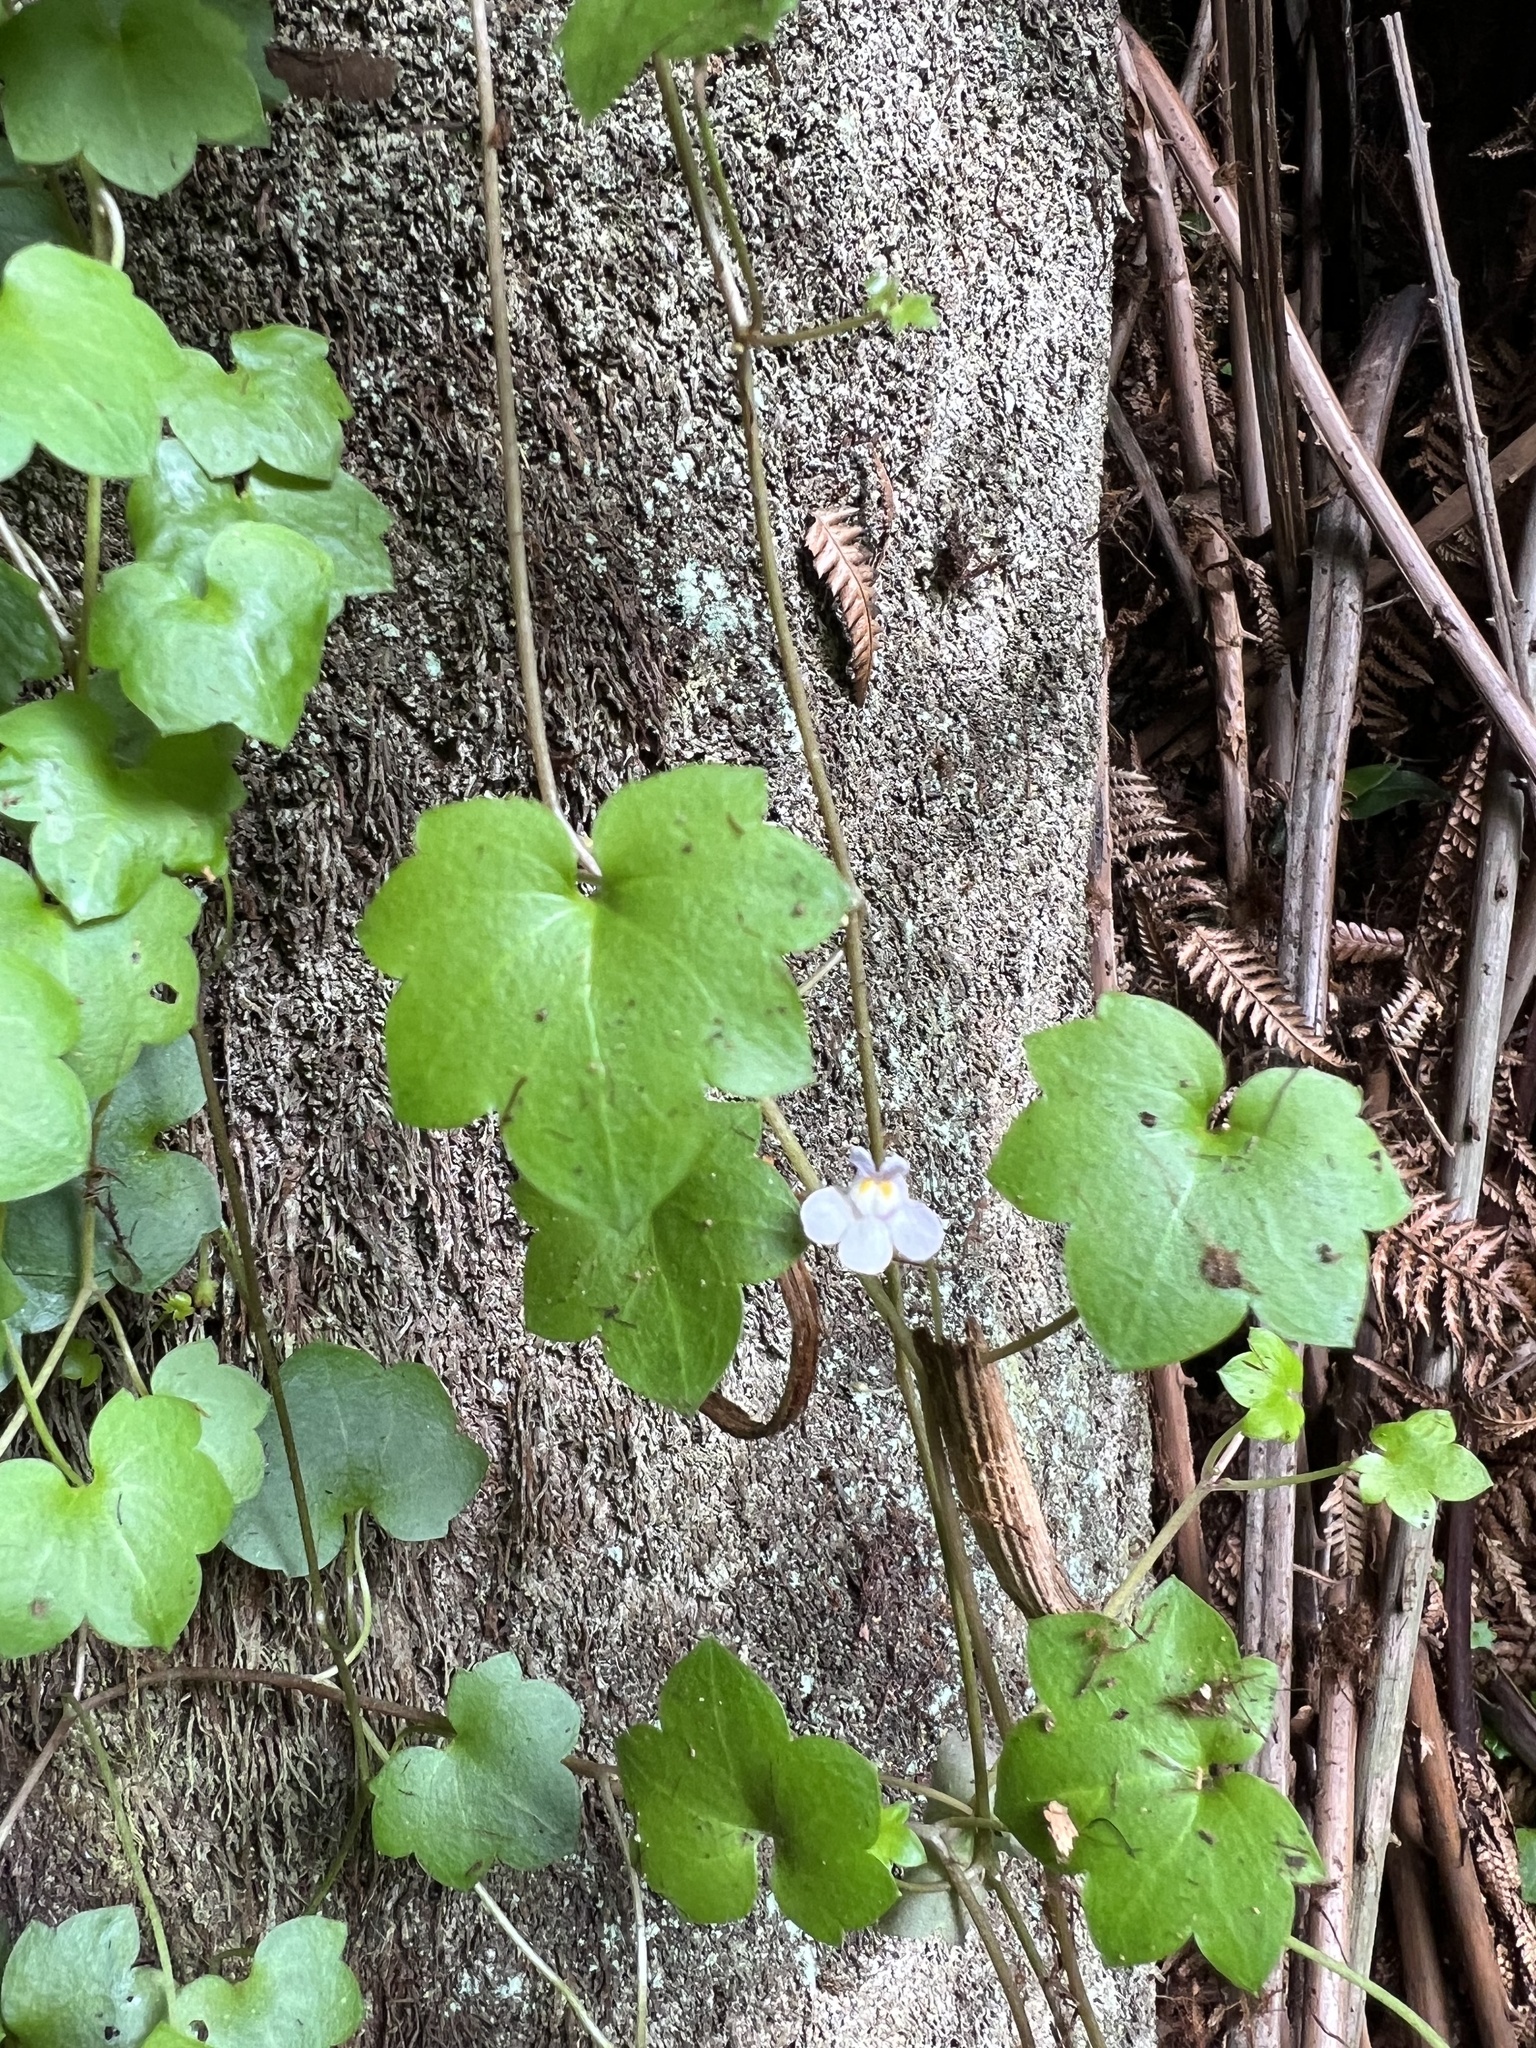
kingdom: Plantae
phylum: Tracheophyta
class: Magnoliopsida
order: Lamiales
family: Plantaginaceae
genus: Cymbalaria
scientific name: Cymbalaria muralis
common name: Ivy-leaved toadflax
